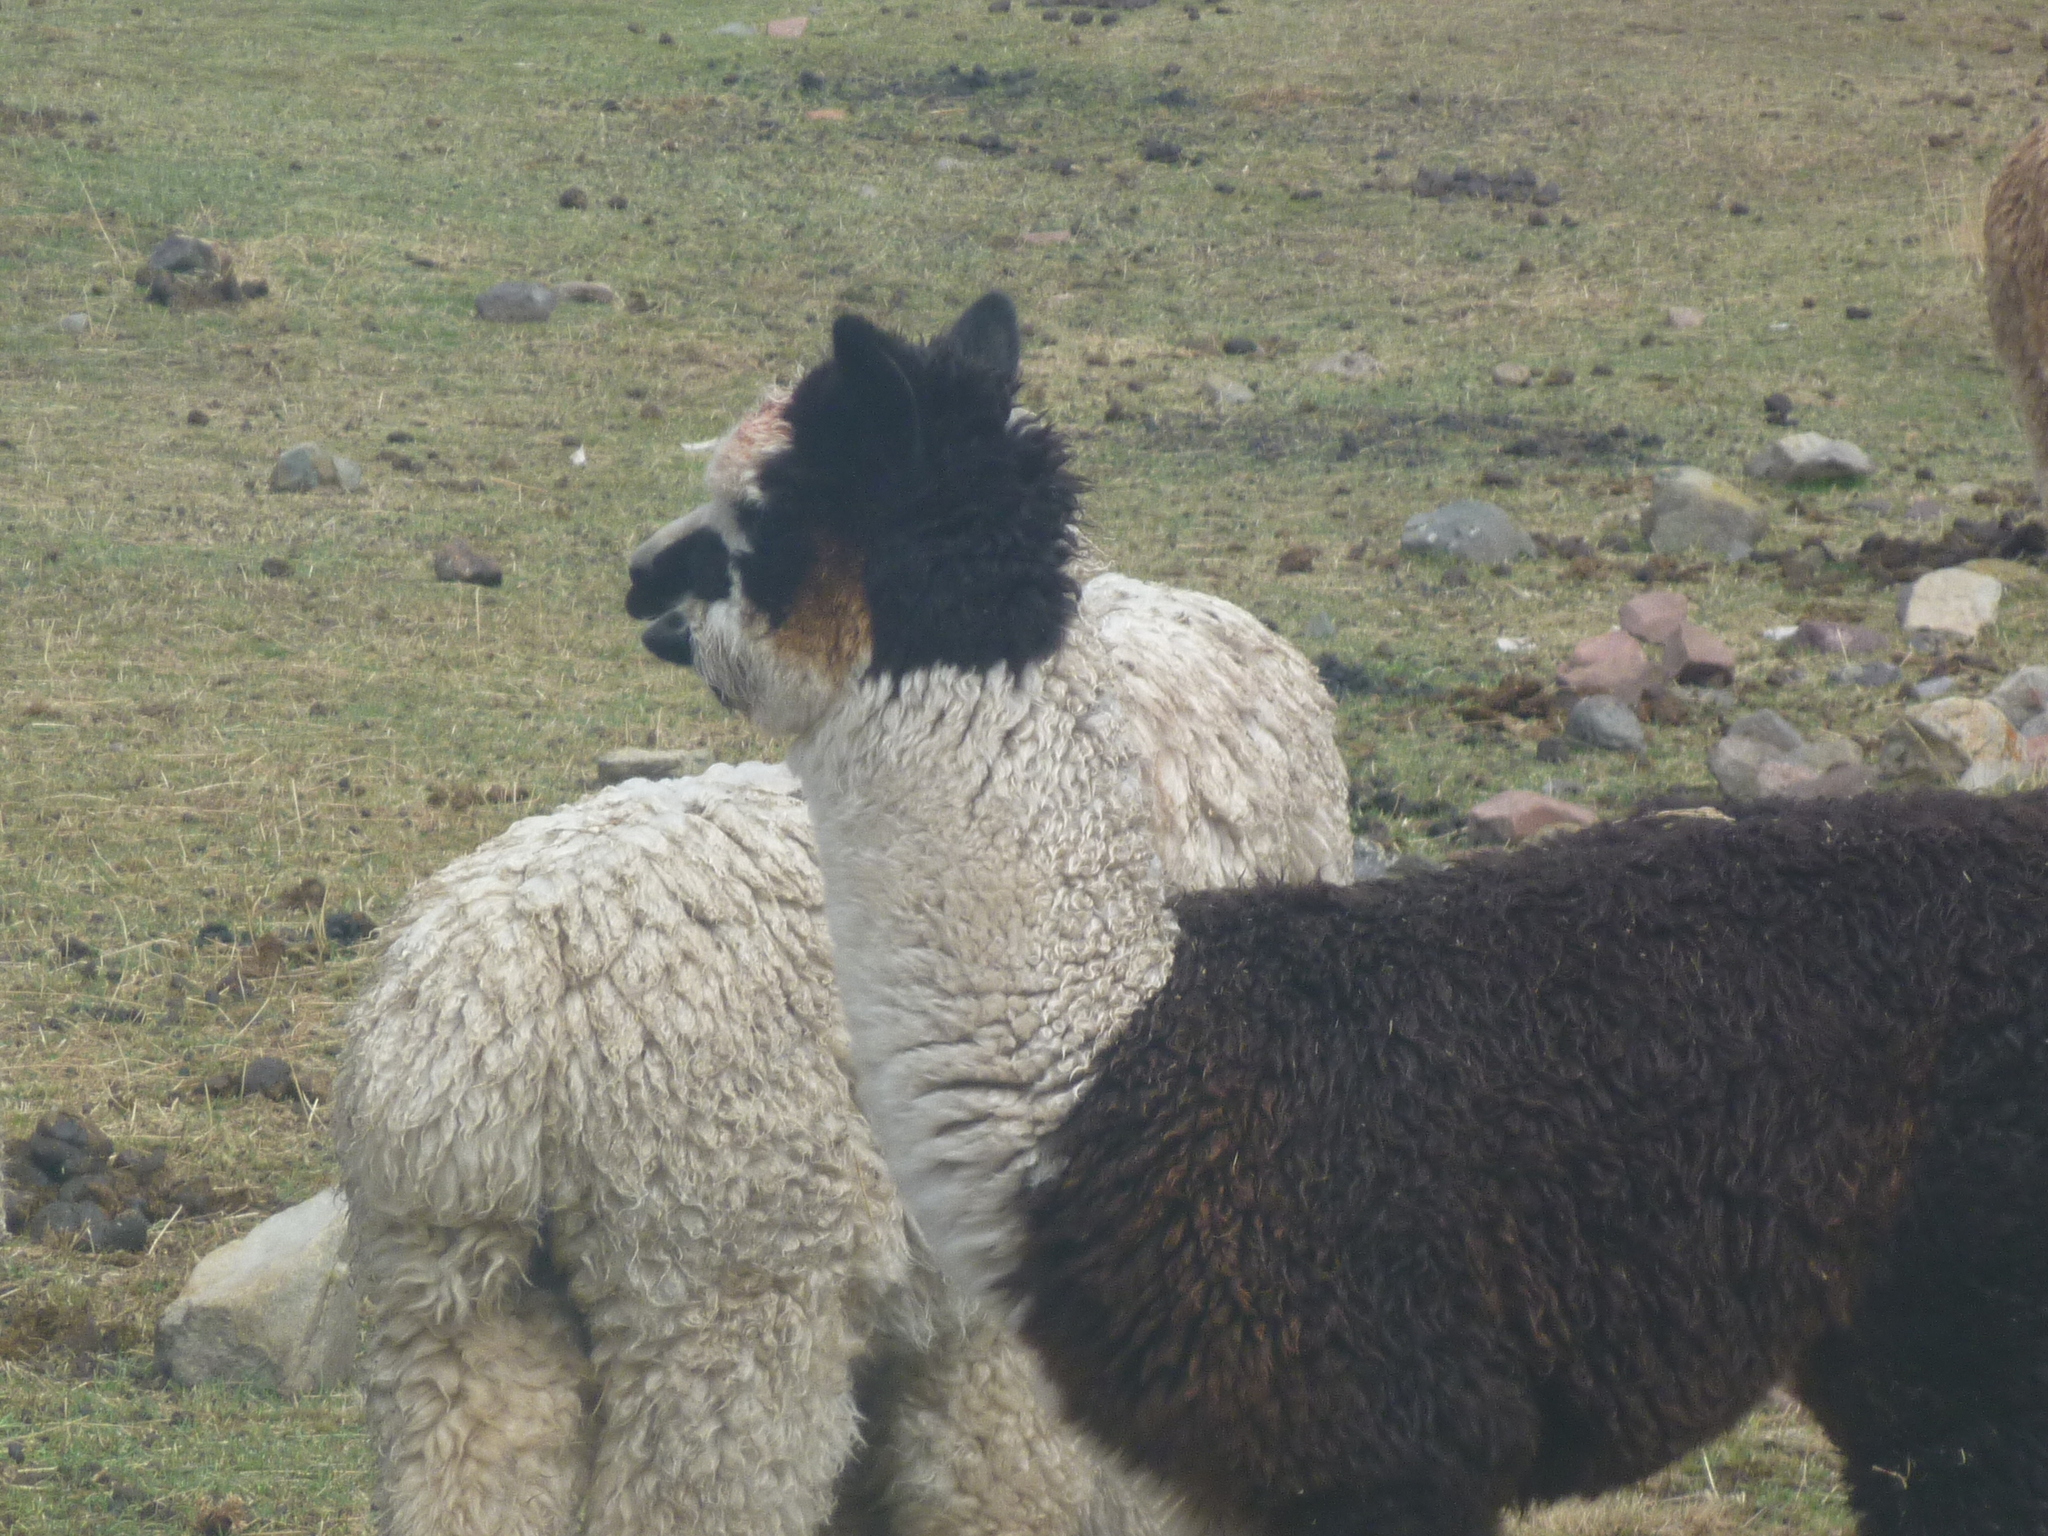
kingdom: Animalia
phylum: Chordata
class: Mammalia
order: Artiodactyla
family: Camelidae
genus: Vicugna
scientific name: Vicugna pacos
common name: Alpaca
